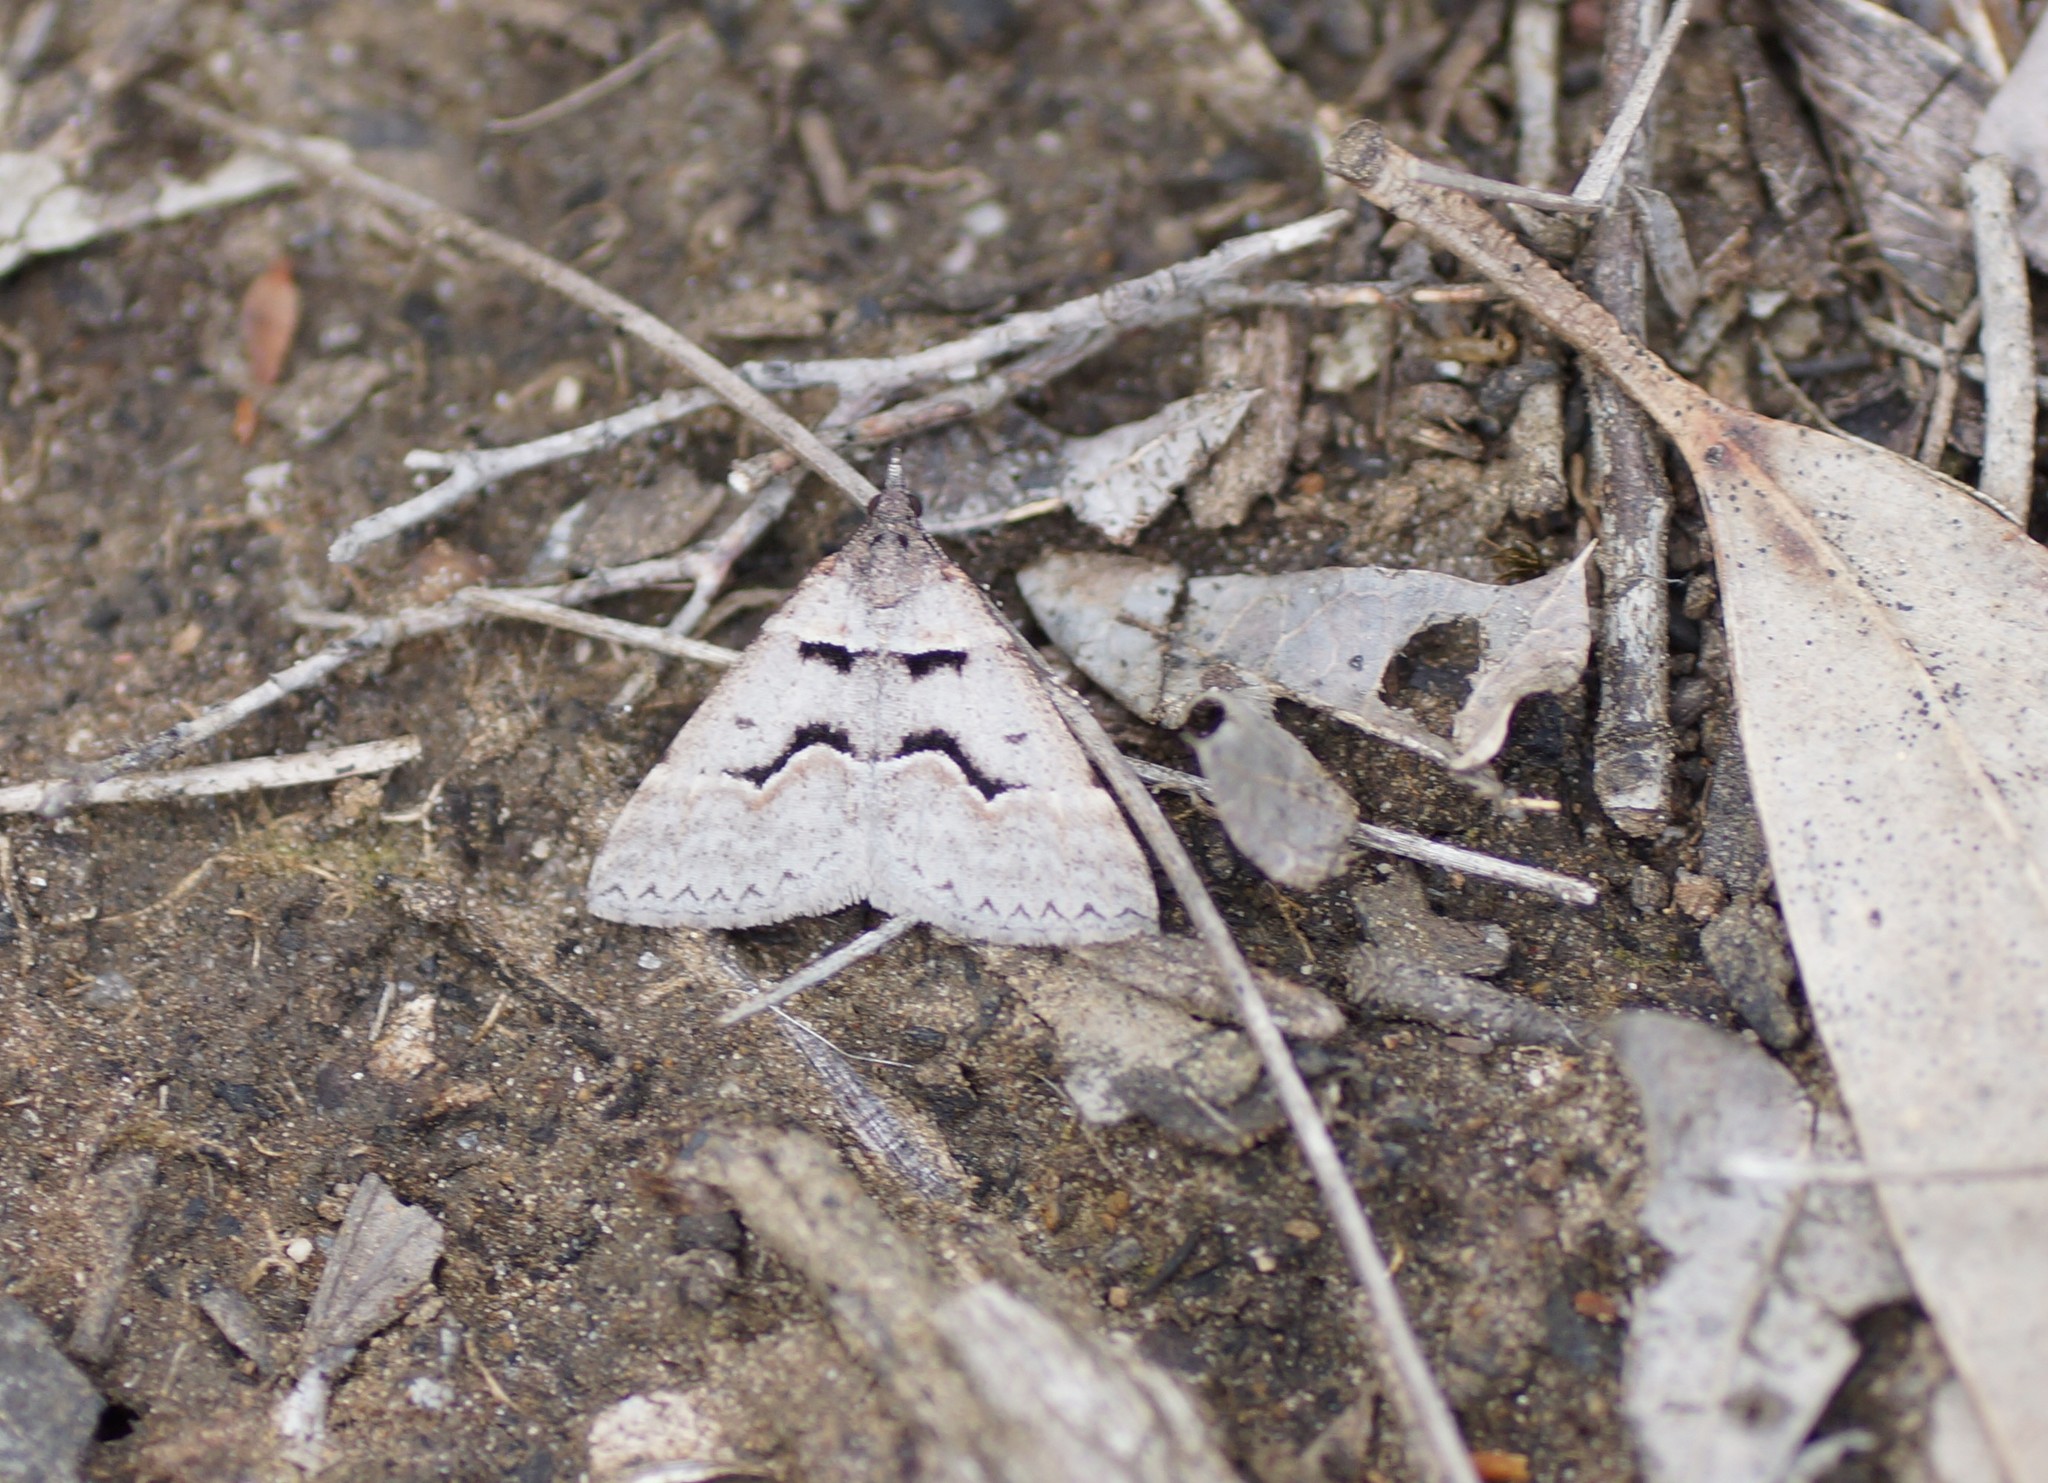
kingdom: Animalia
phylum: Arthropoda
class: Insecta
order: Lepidoptera
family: Geometridae
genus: Dichromodes
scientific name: Dichromodes atrosignata
